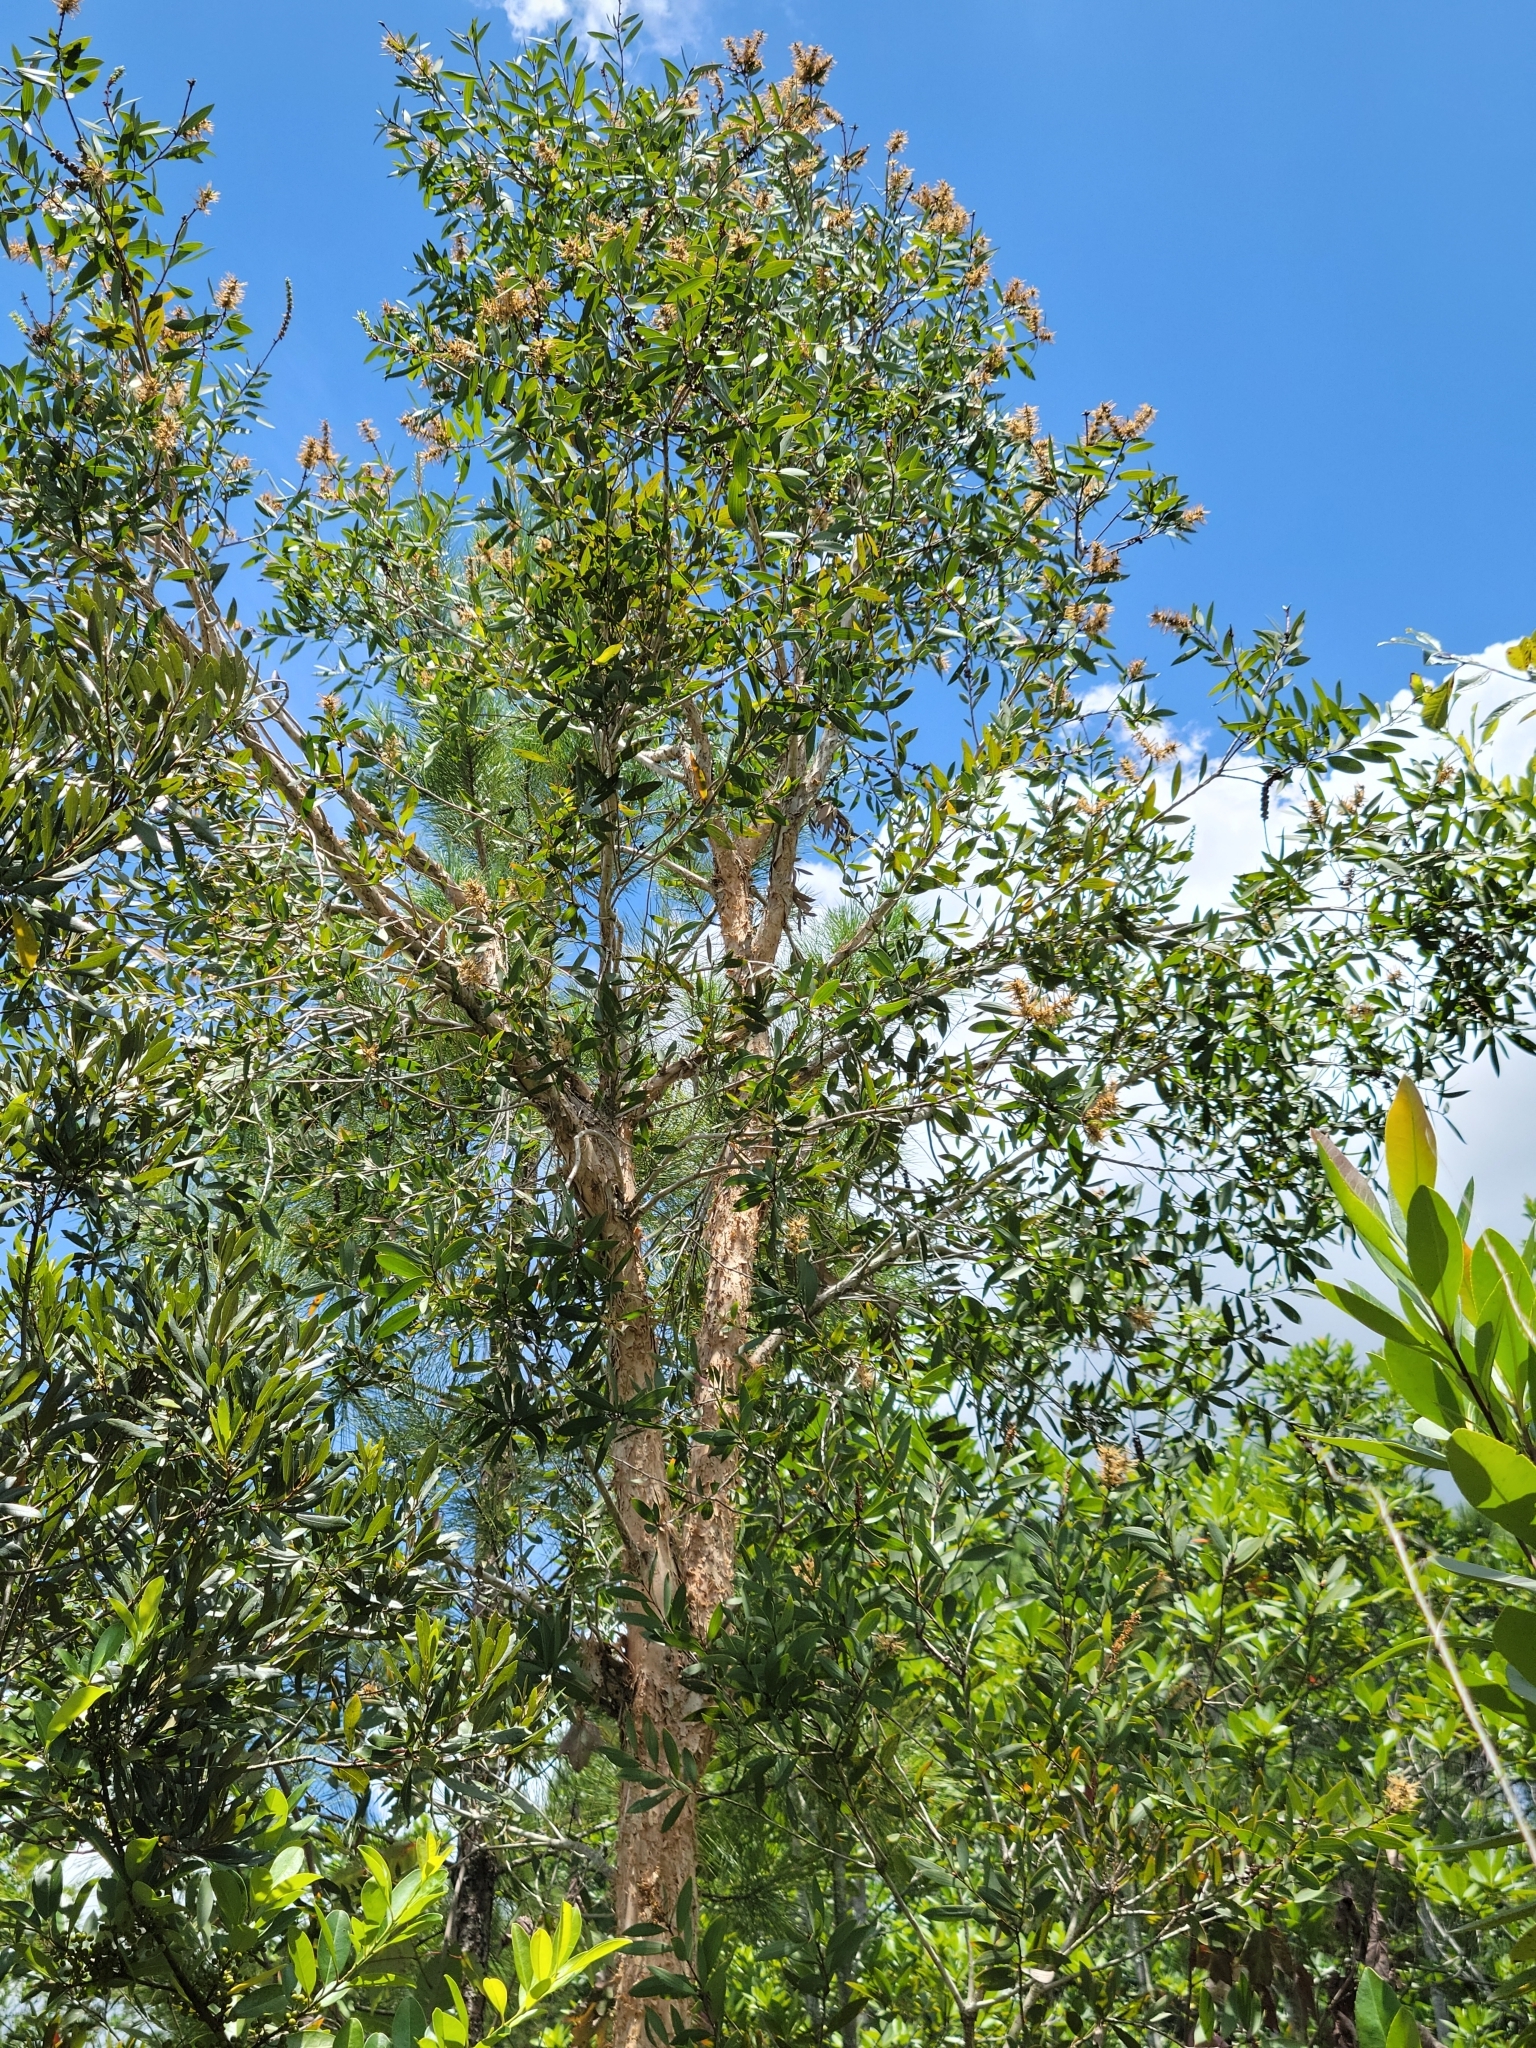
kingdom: Plantae
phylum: Tracheophyta
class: Magnoliopsida
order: Myrtales
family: Myrtaceae
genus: Melaleuca
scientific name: Melaleuca quinquenervia
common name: Punktree
